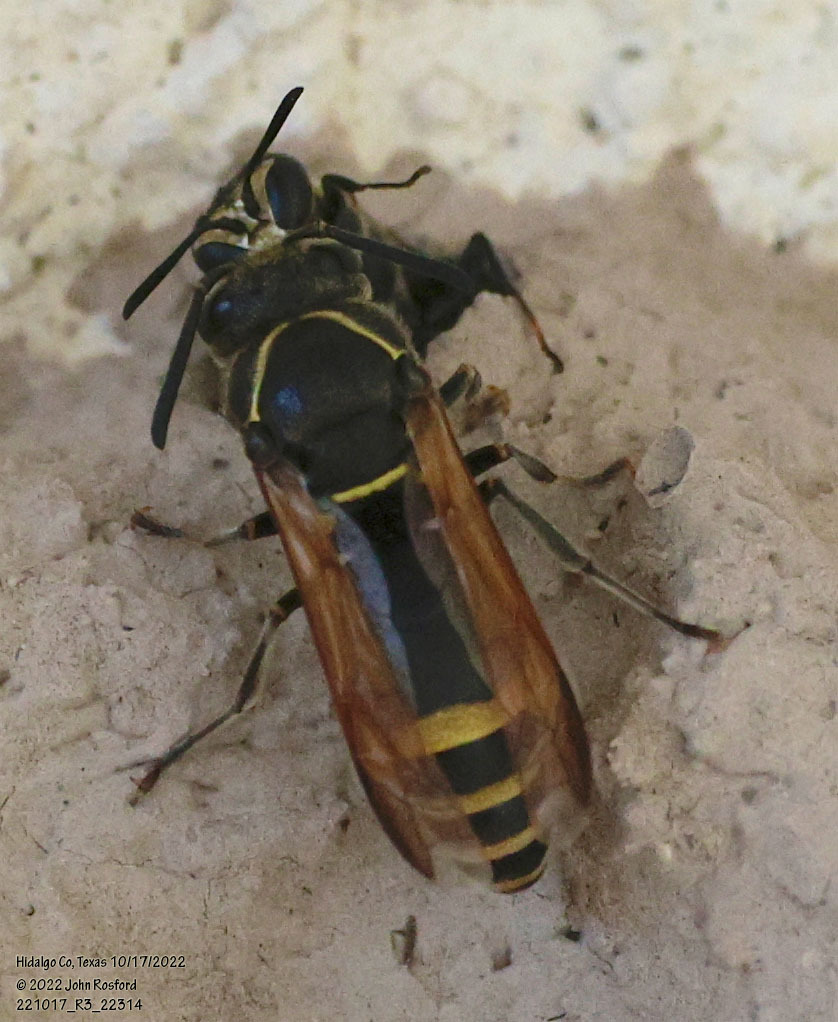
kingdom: Animalia
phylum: Arthropoda
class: Insecta
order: Hymenoptera
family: Eumenidae
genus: Pachodynerus
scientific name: Pachodynerus
